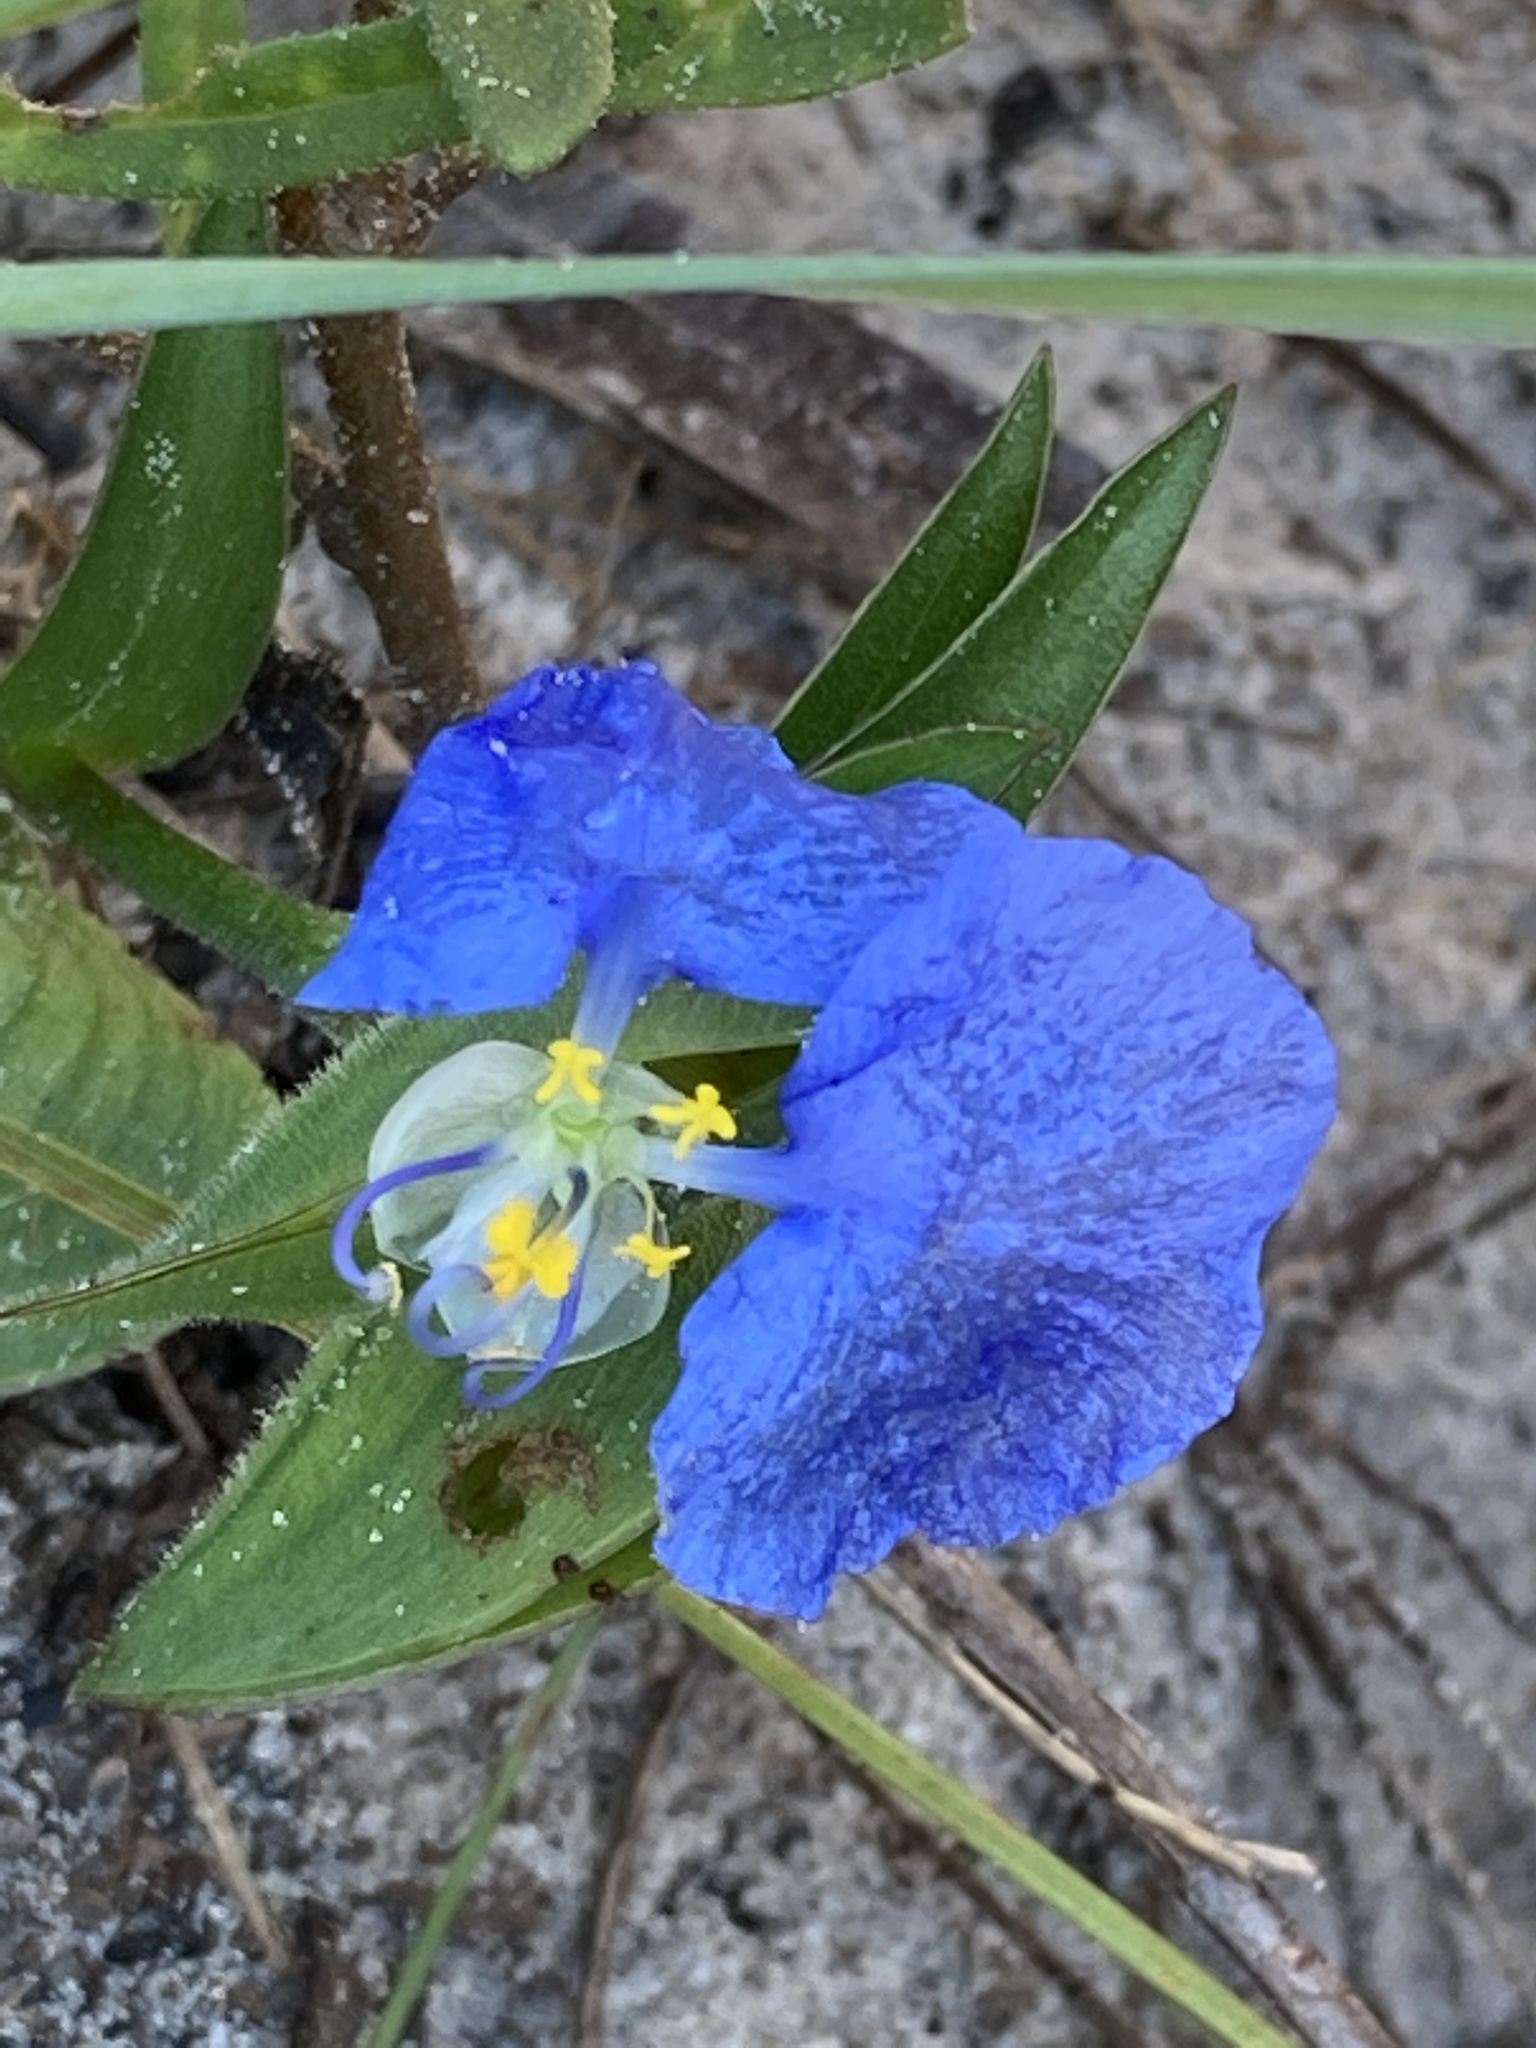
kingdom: Plantae
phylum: Tracheophyta
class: Liliopsida
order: Commelinales
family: Commelinaceae
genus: Commelina
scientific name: Commelina erecta
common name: Blousel blommetjie
